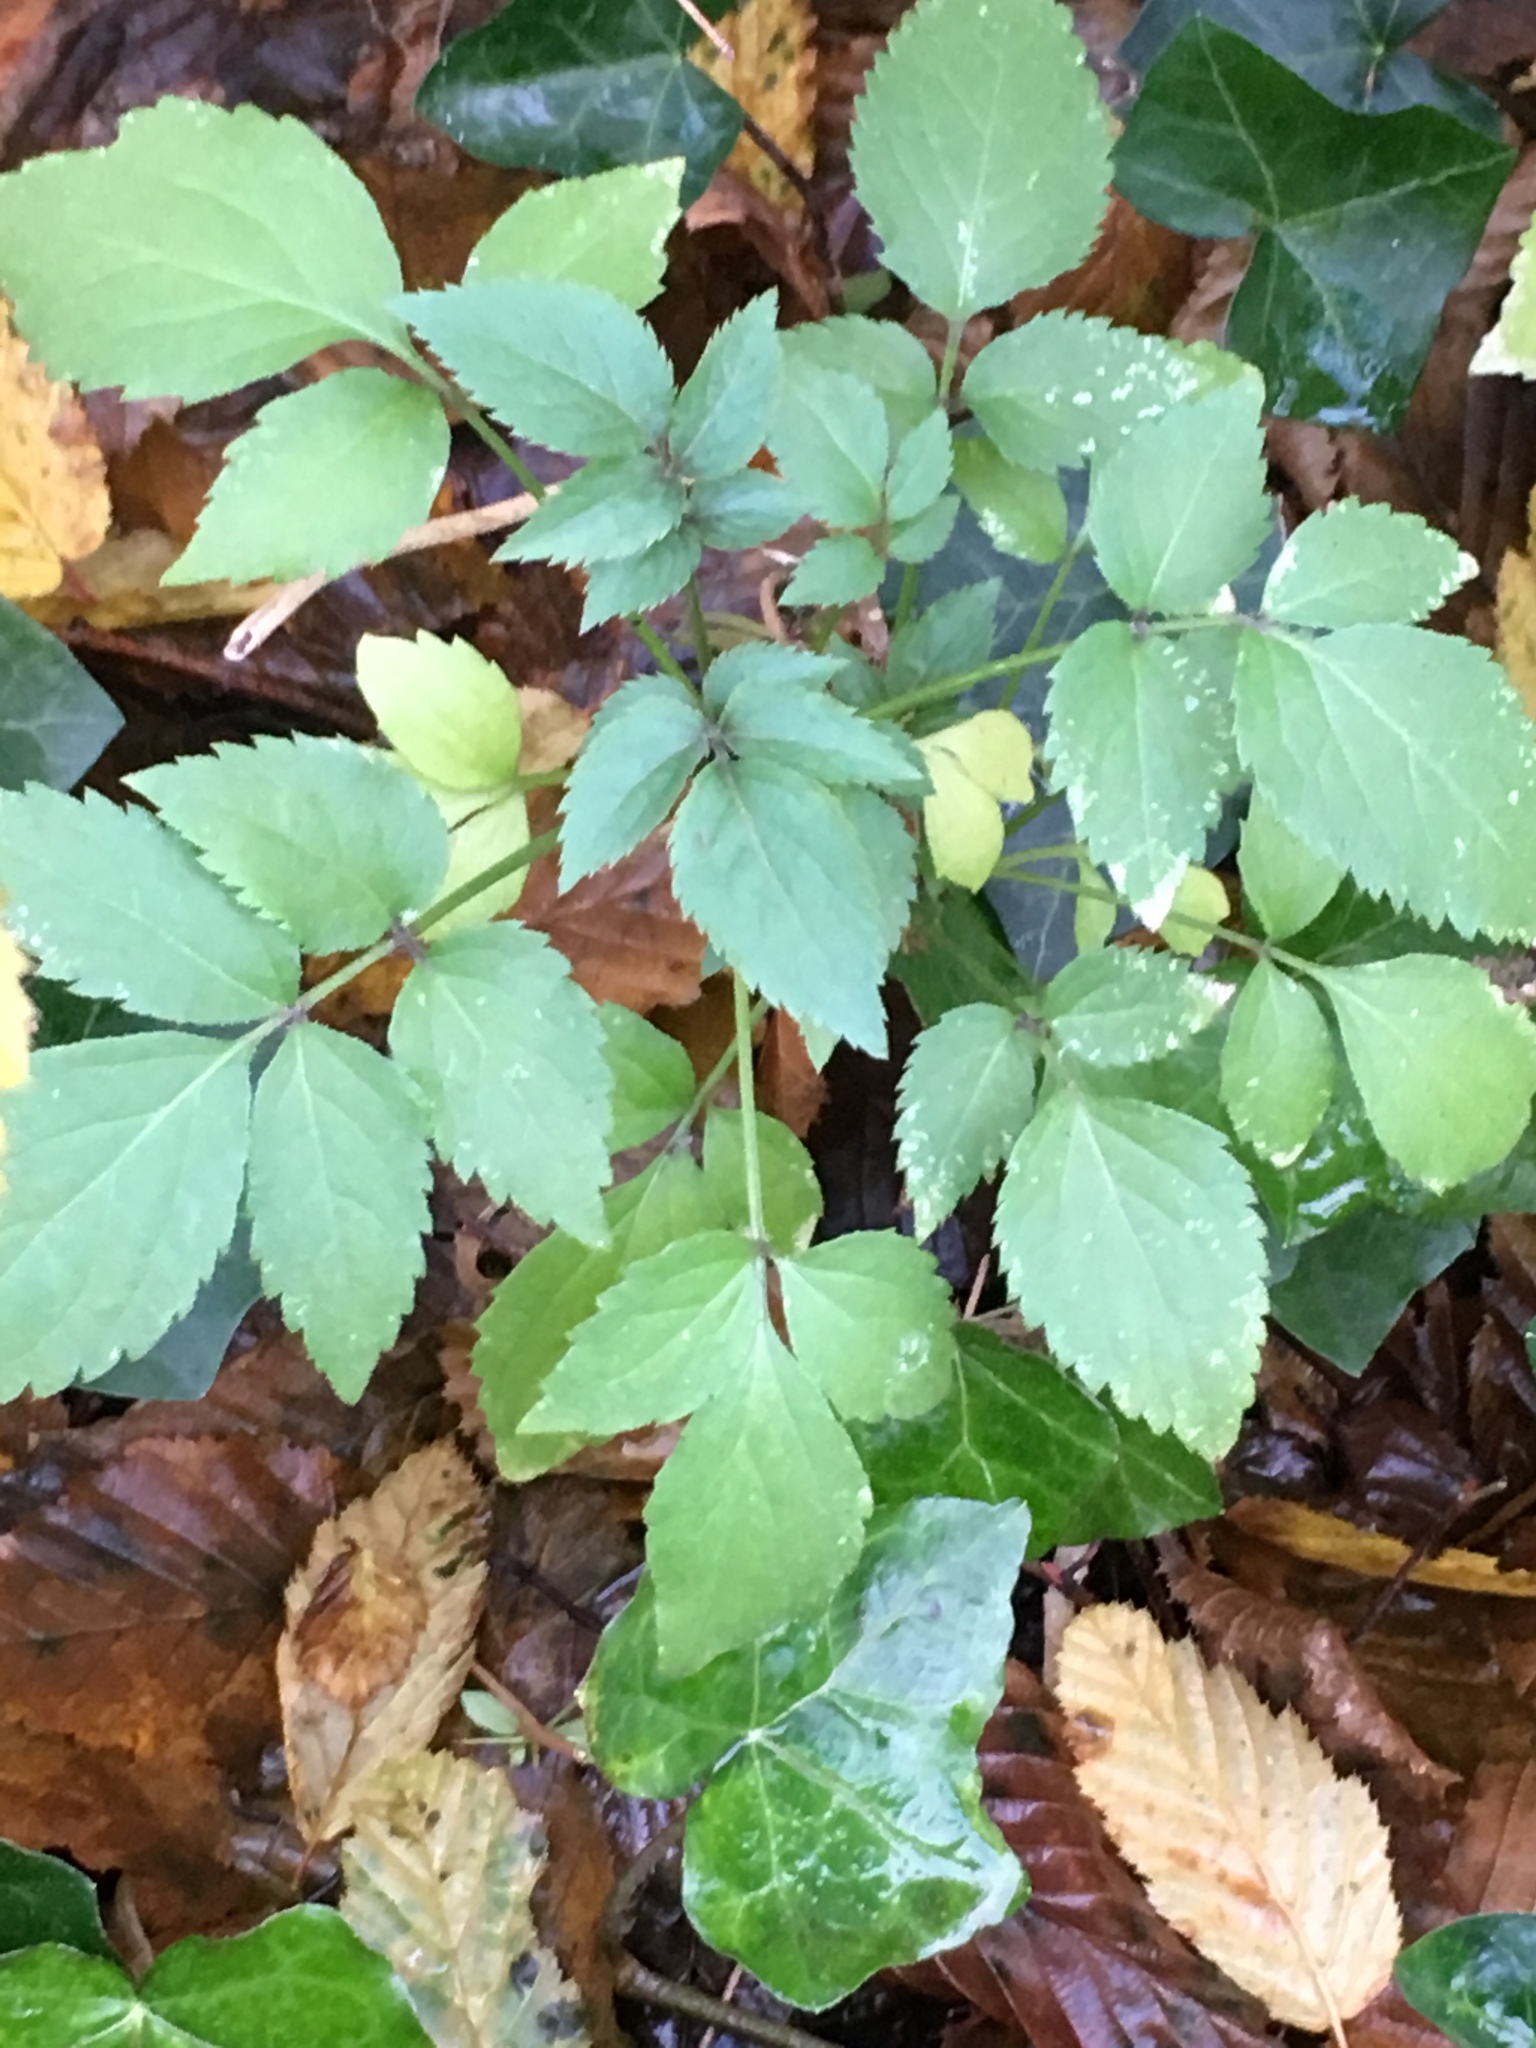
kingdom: Plantae
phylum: Tracheophyta
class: Magnoliopsida
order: Dipsacales
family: Viburnaceae
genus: Sambucus
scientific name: Sambucus nigra
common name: Elder
